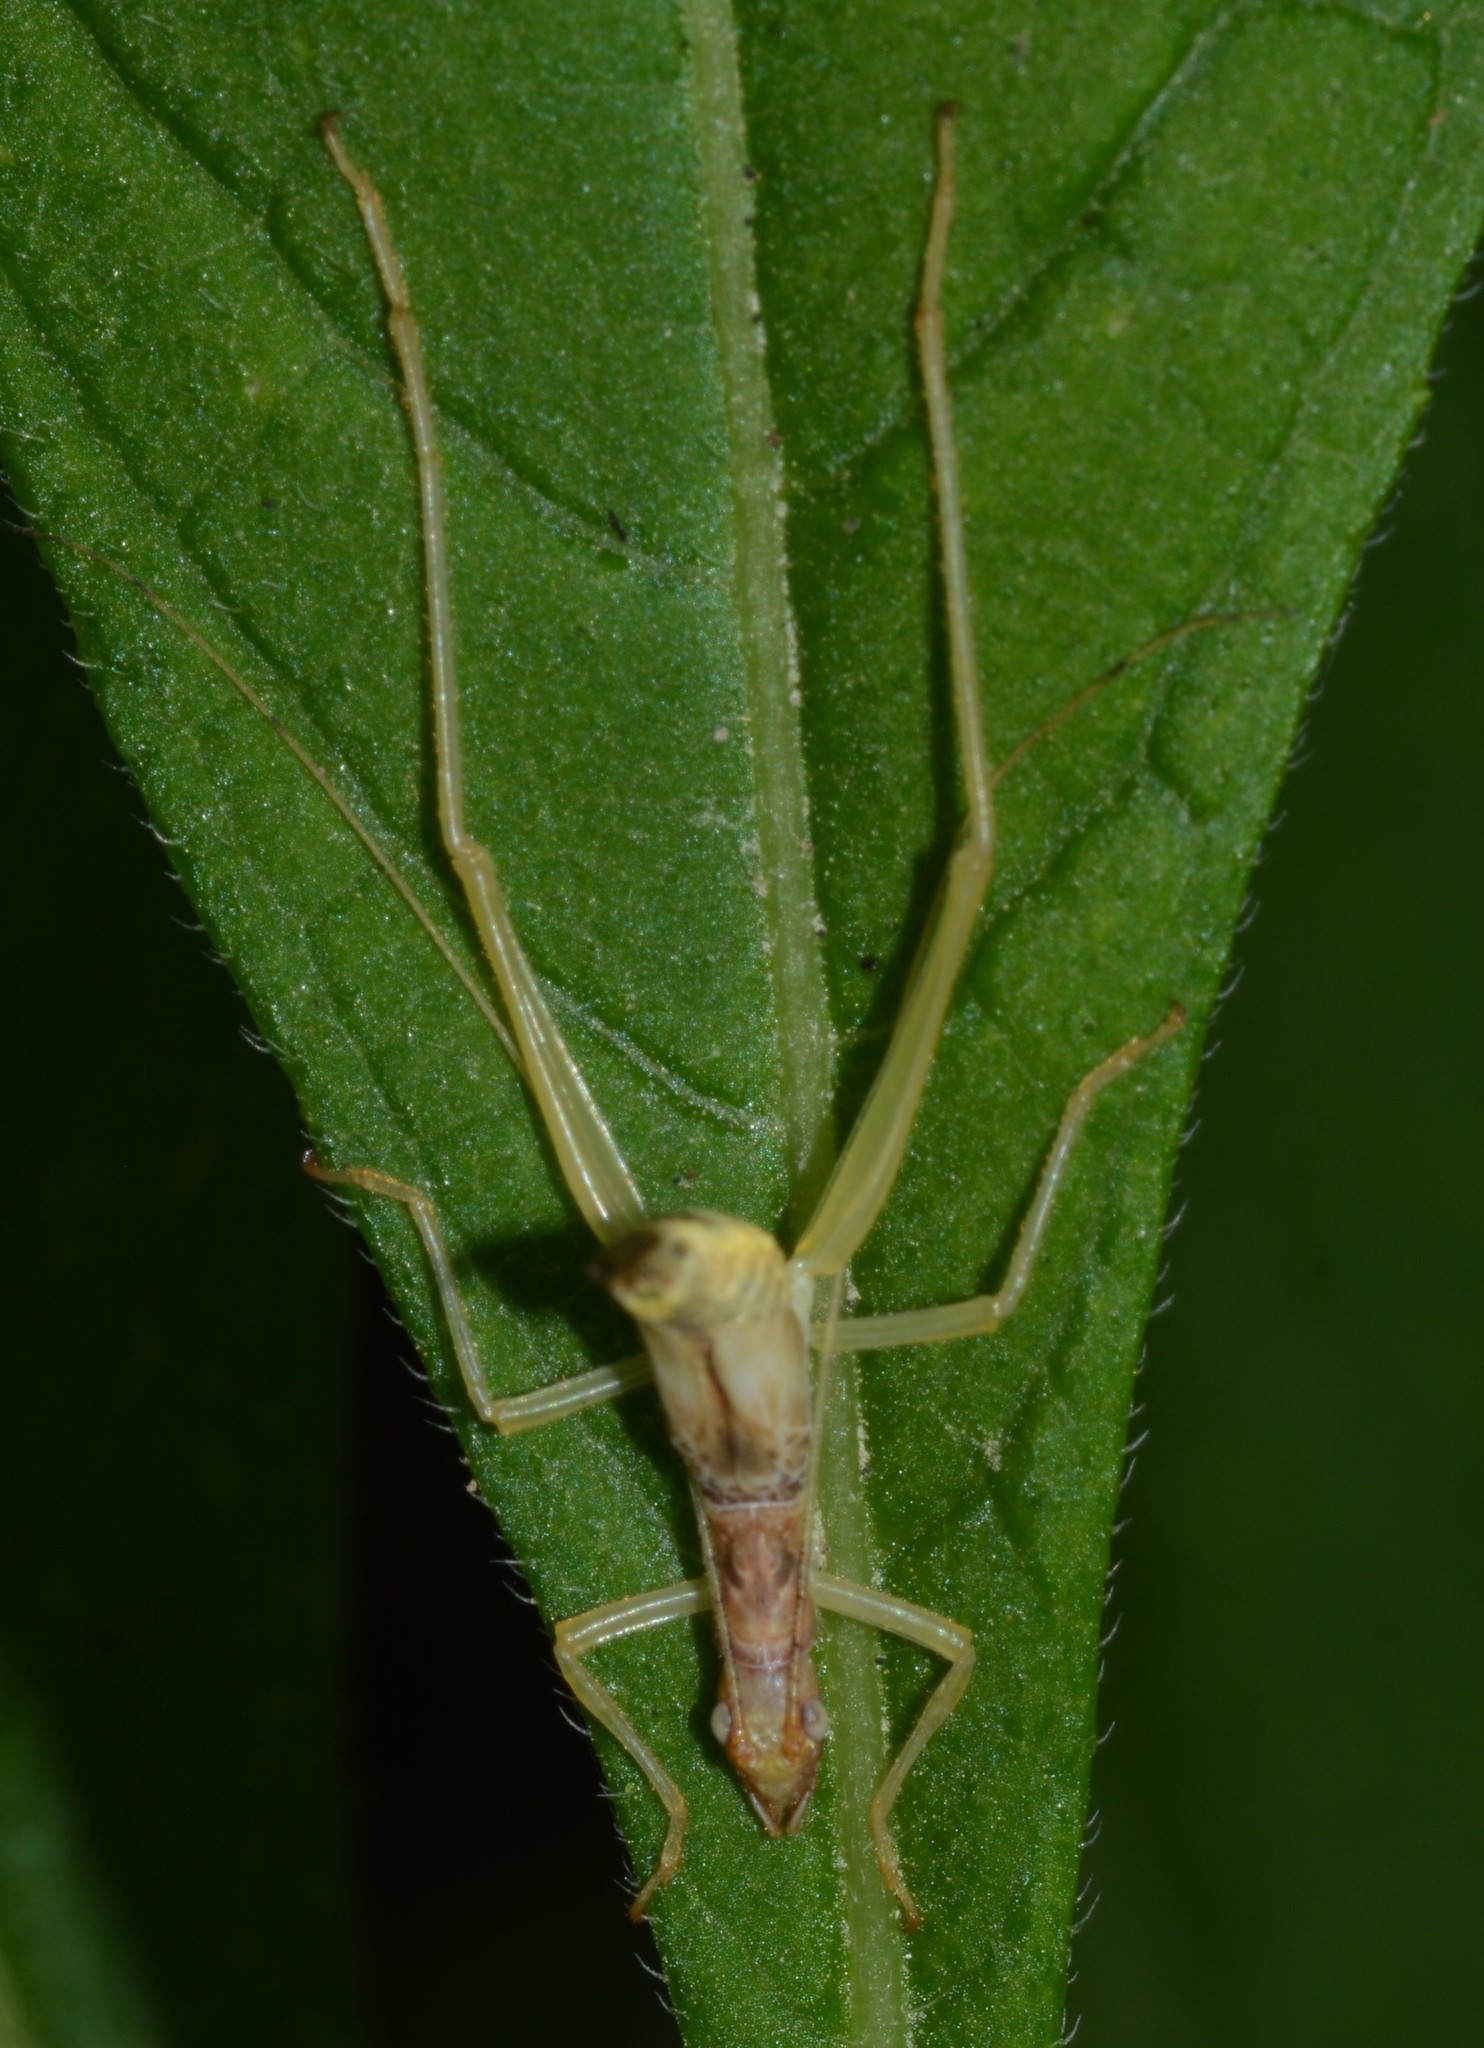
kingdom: Animalia
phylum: Arthropoda
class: Insecta
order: Orthoptera
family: Gryllidae
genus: Neoxabea
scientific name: Neoxabea bipunctata
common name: Two-spotted tree cricket
